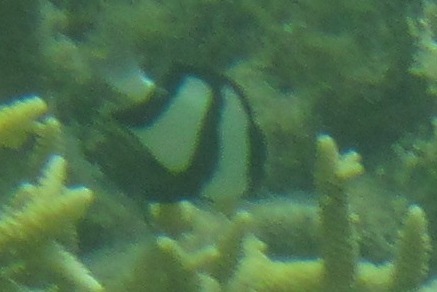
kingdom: Animalia
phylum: Chordata
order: Perciformes
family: Pomacentridae
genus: Dascyllus
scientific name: Dascyllus aruanus
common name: Humbug dascyllus
